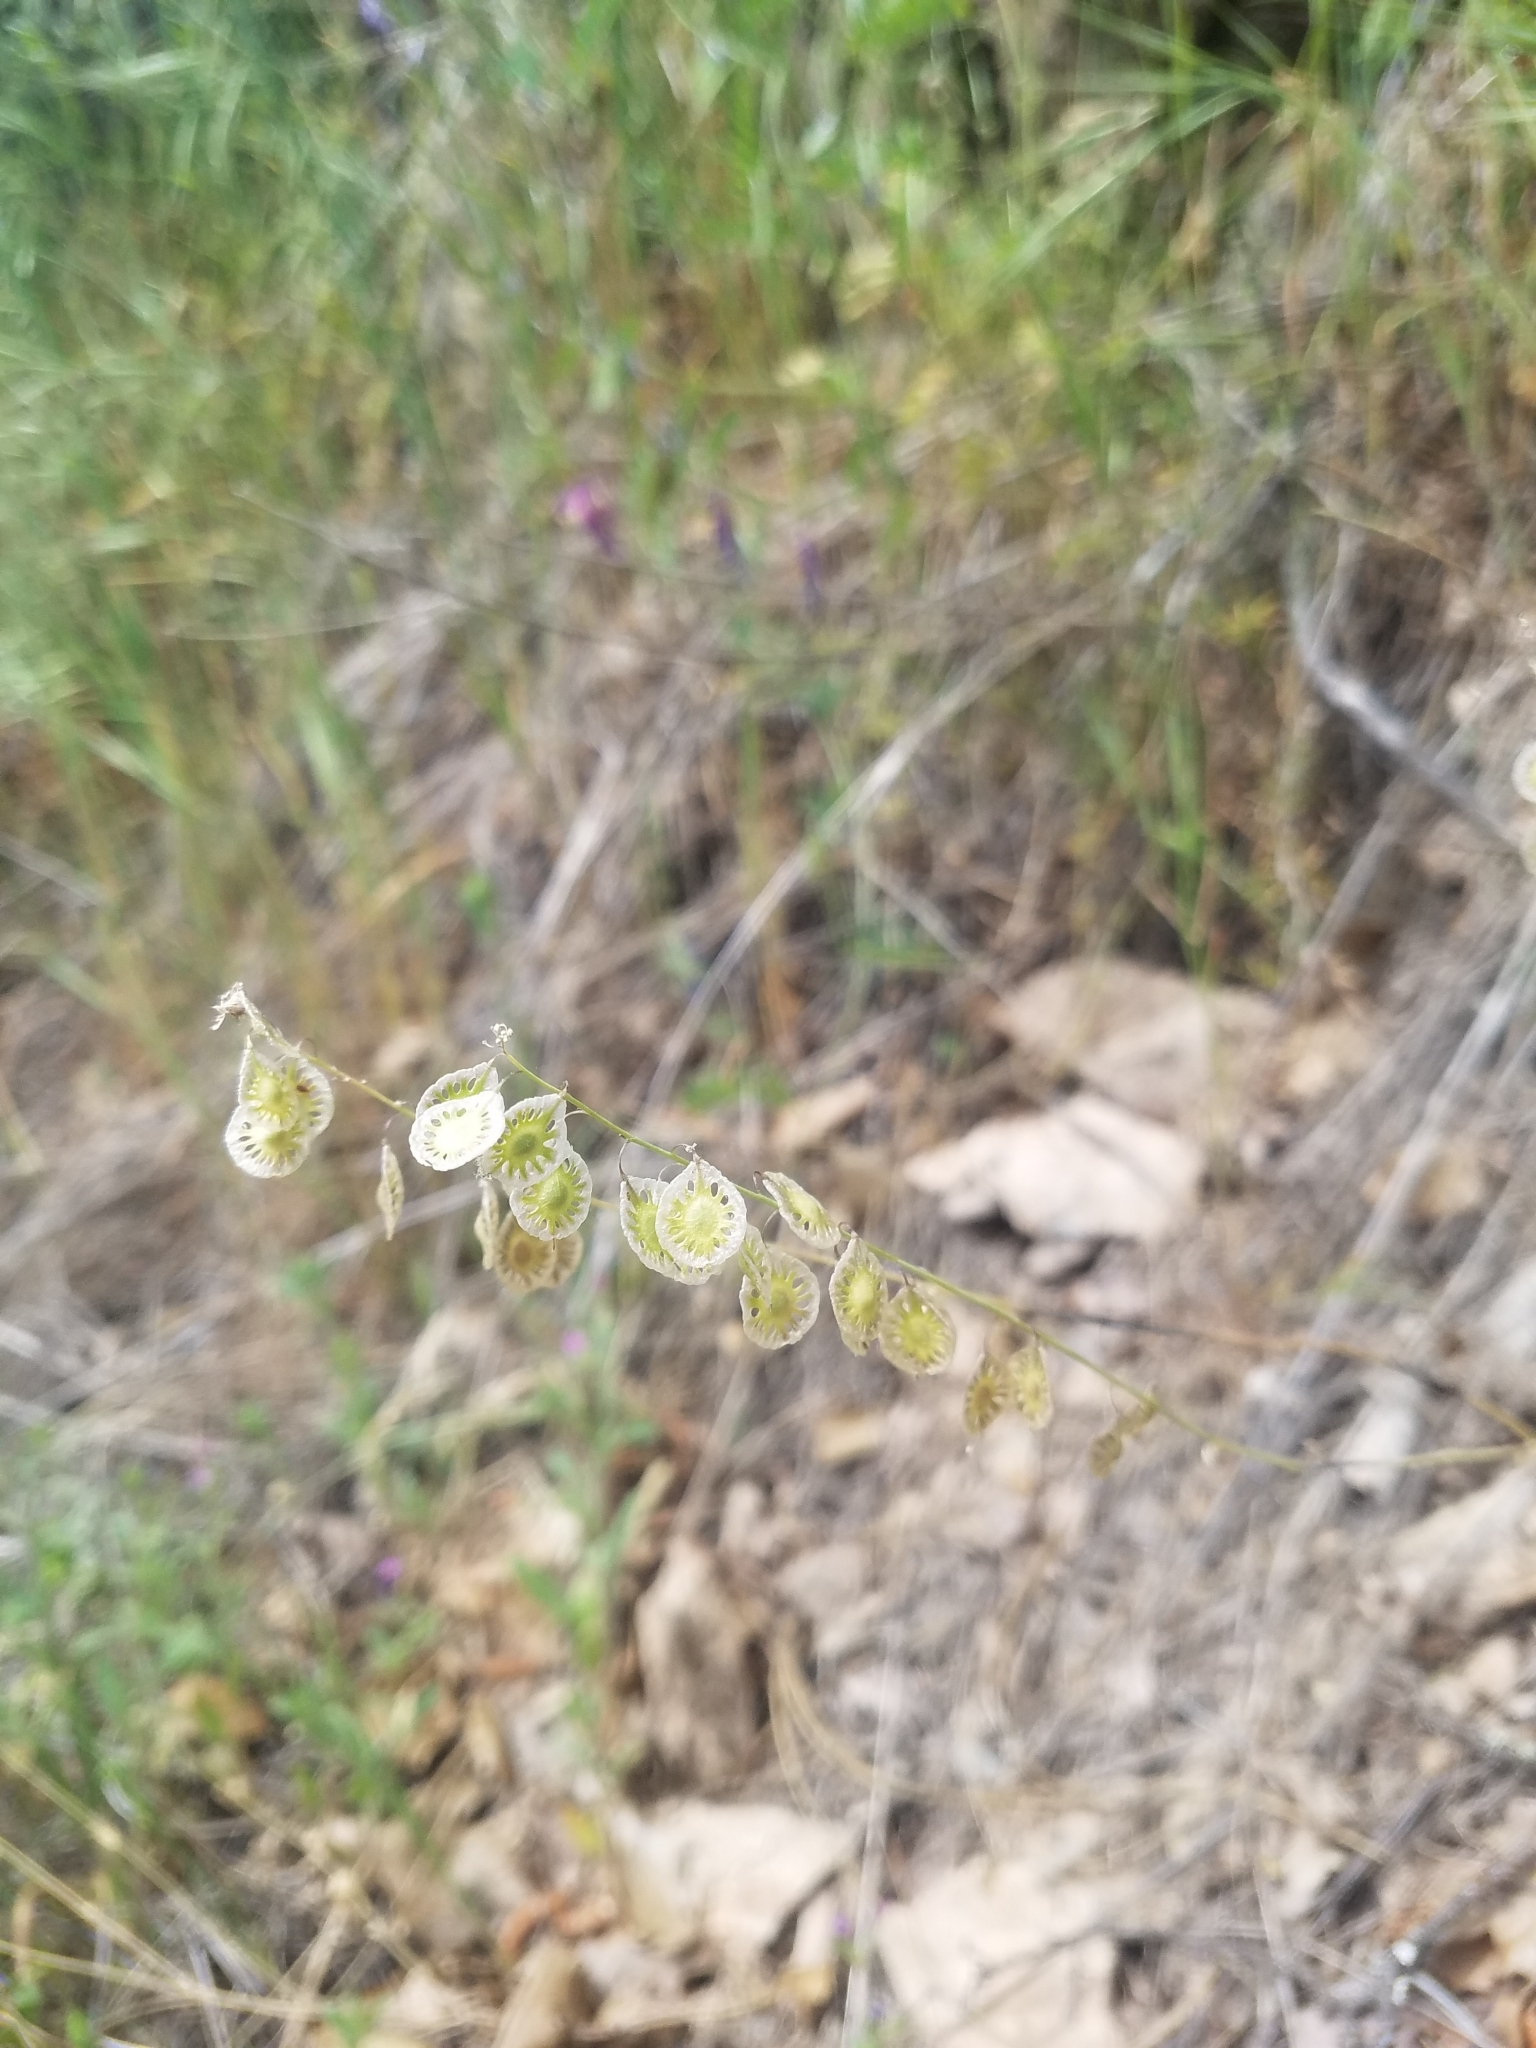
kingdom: Plantae
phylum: Tracheophyta
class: Magnoliopsida
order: Brassicales
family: Brassicaceae
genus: Thysanocarpus
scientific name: Thysanocarpus curvipes
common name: Sand fringepod
